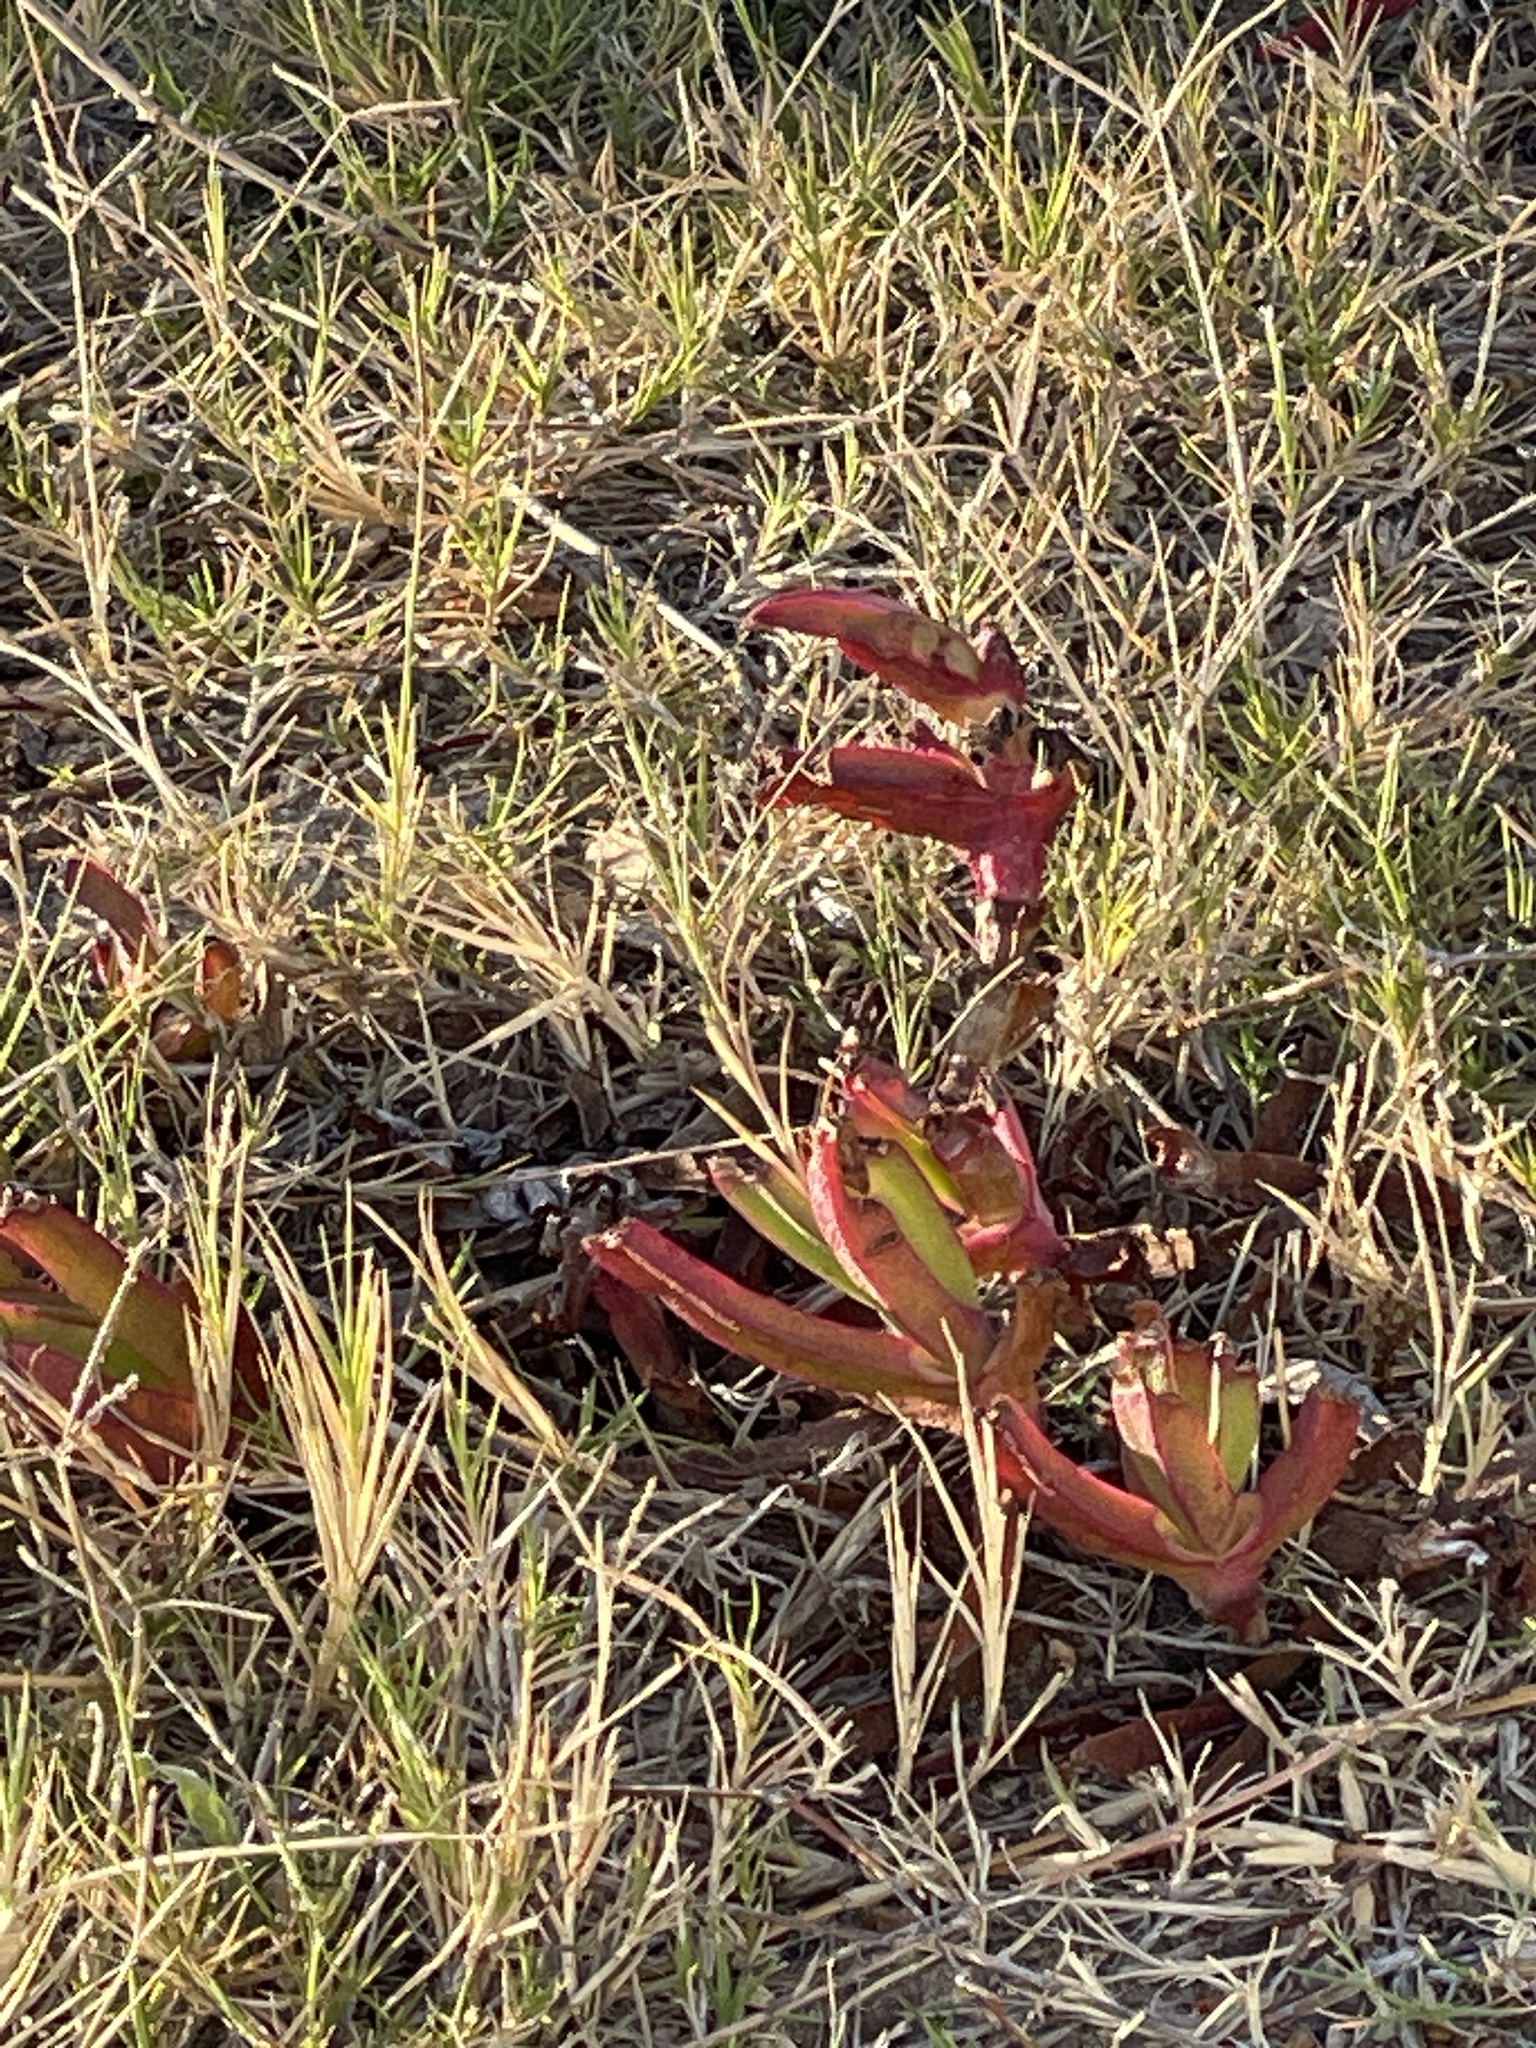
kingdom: Plantae
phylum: Tracheophyta
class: Magnoliopsida
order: Caryophyllales
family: Aizoaceae
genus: Carpobrotus
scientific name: Carpobrotus edulis
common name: Hottentot-fig
